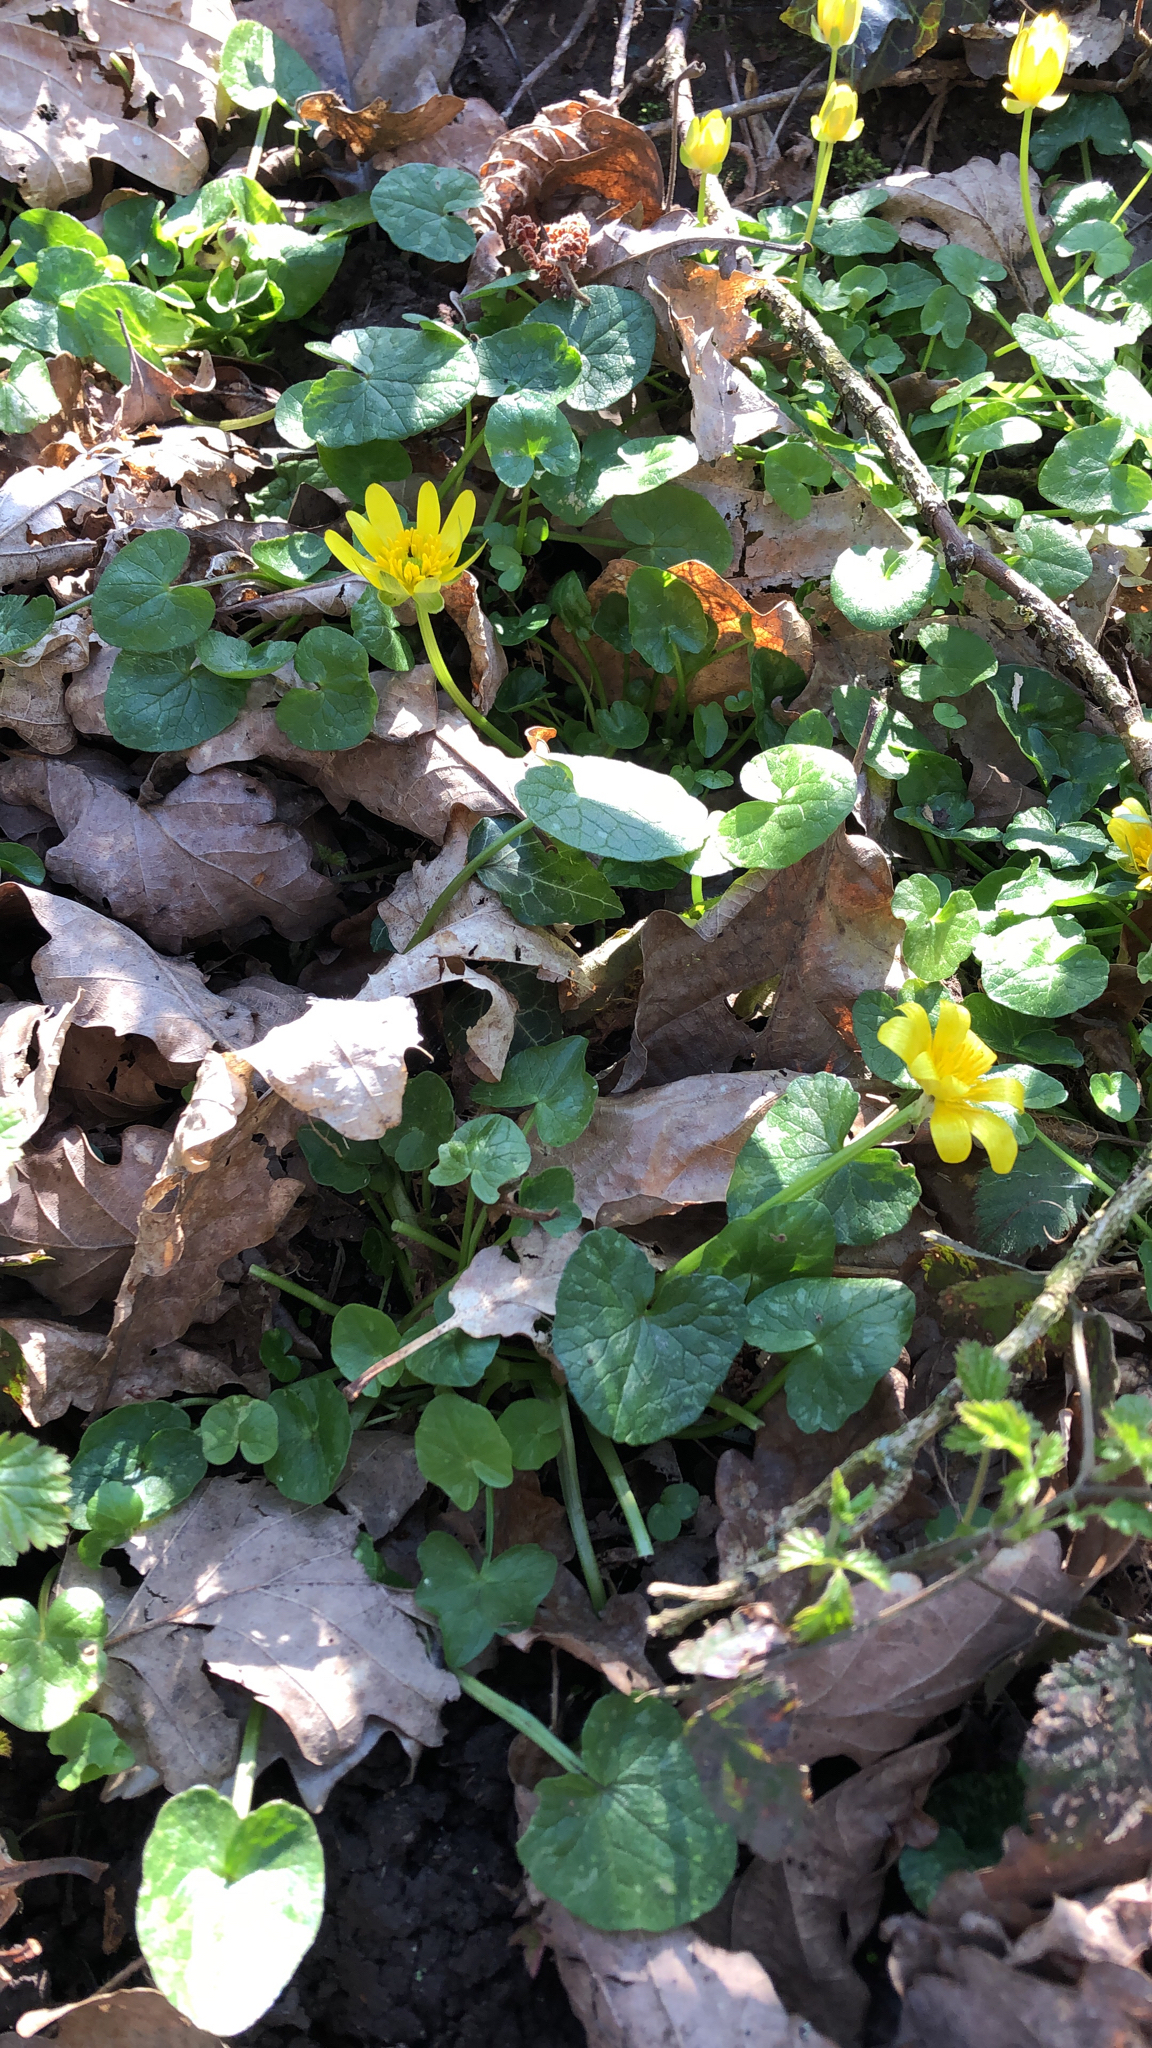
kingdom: Plantae
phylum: Tracheophyta
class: Magnoliopsida
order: Ranunculales
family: Ranunculaceae
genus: Ficaria
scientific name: Ficaria verna
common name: Lesser celandine
